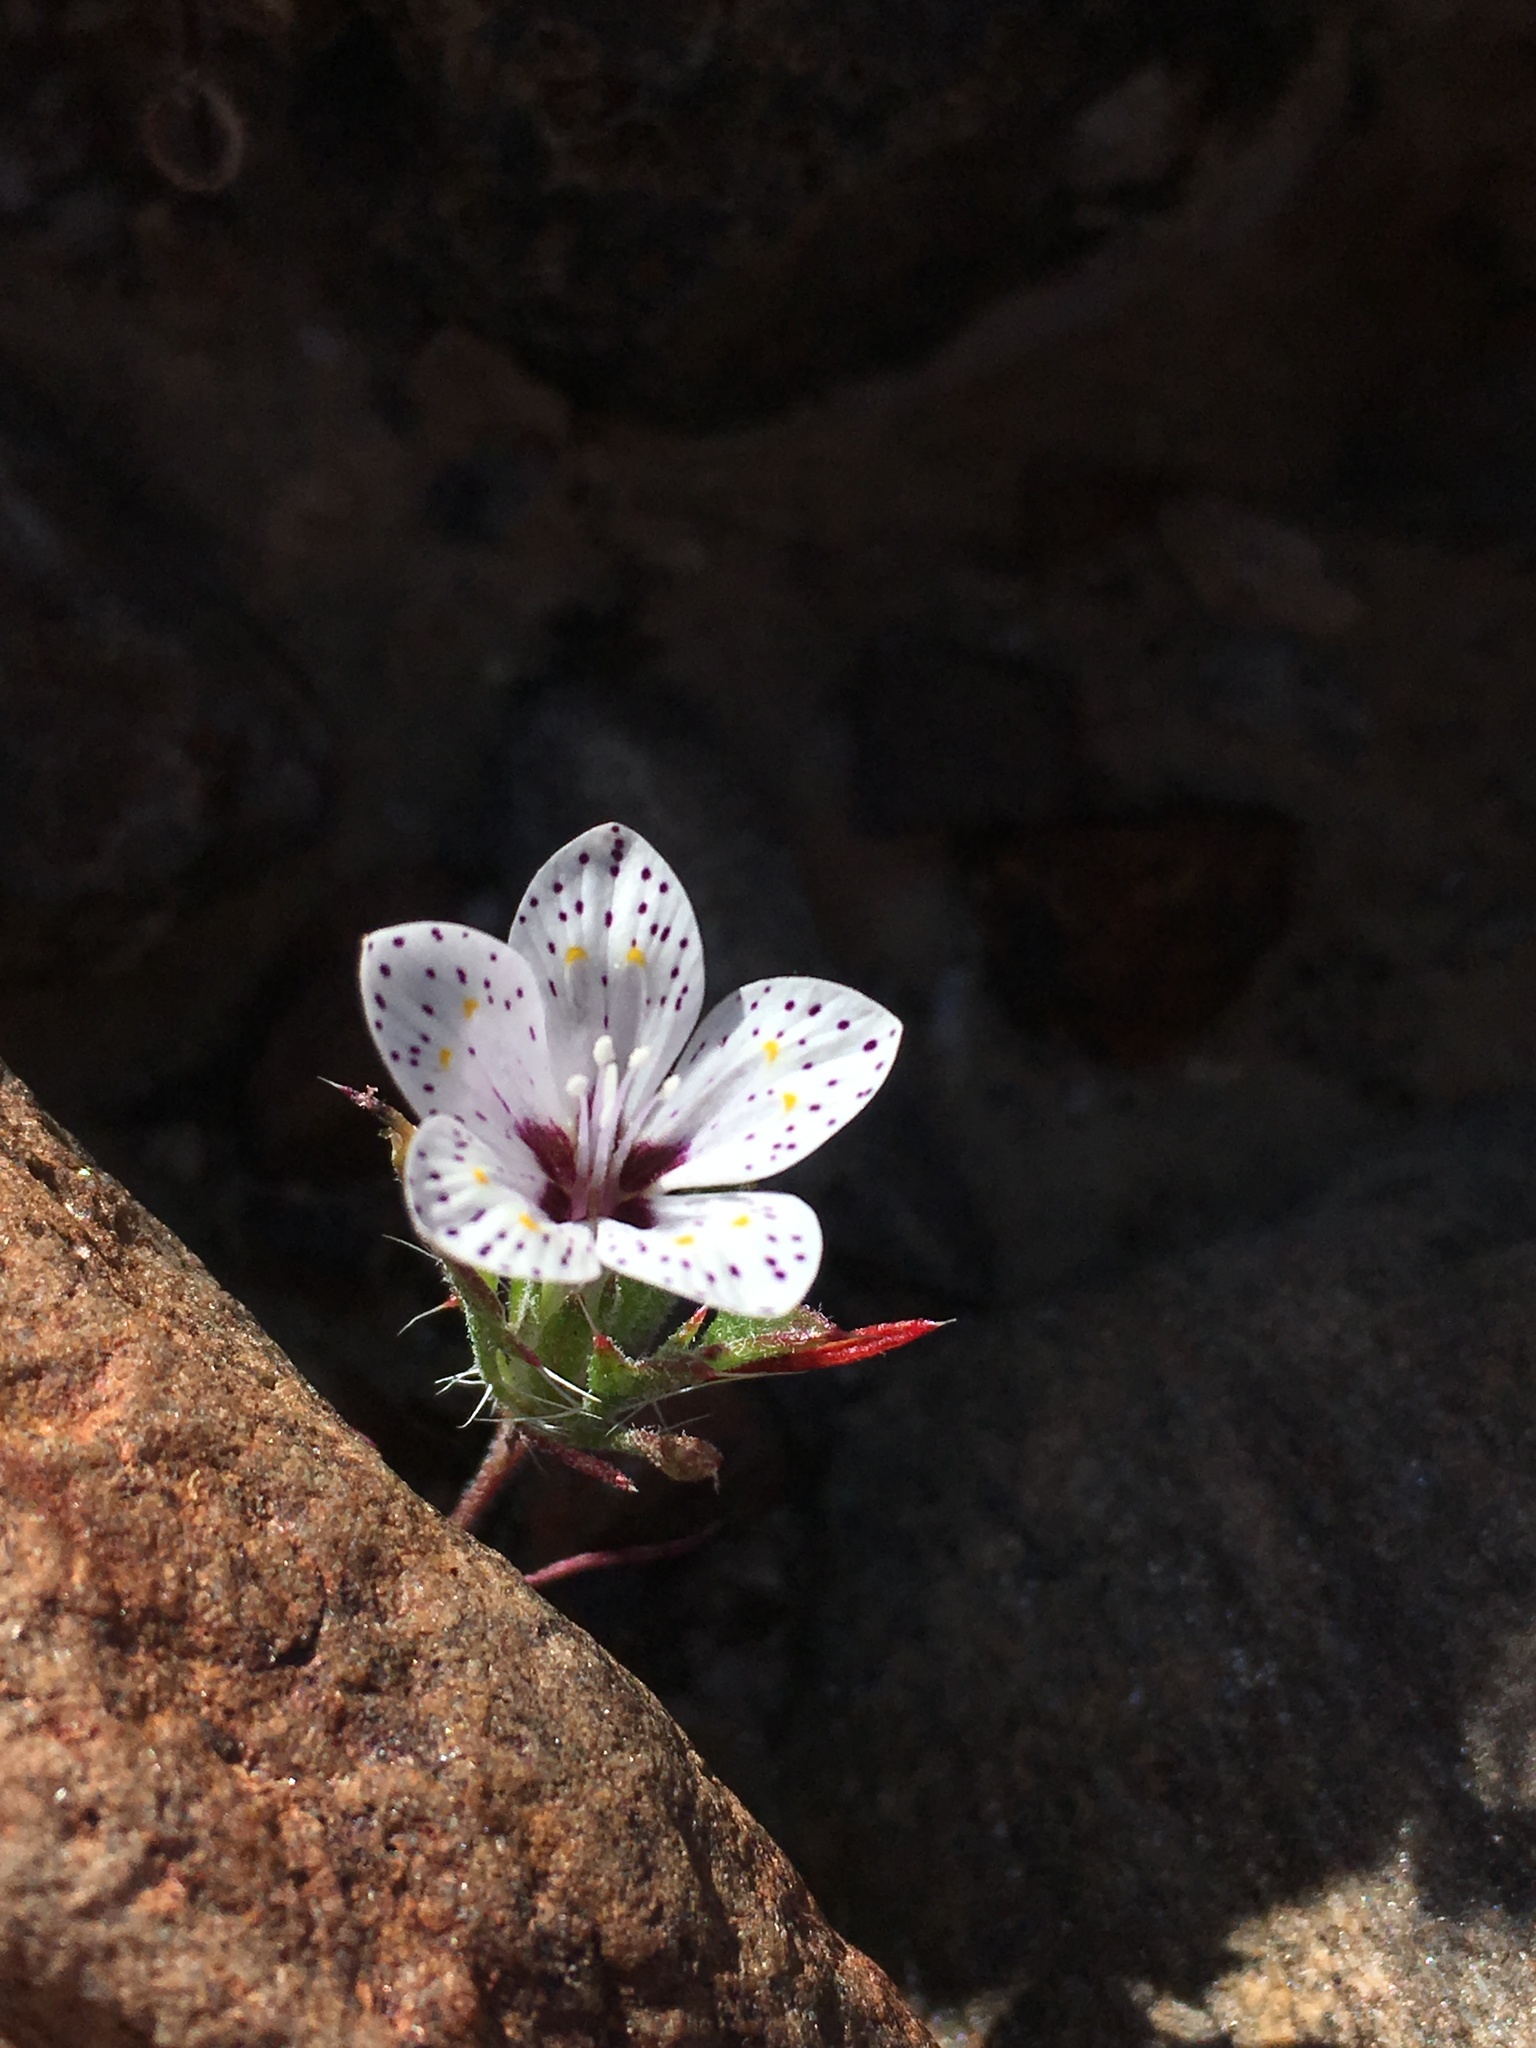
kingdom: Plantae
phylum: Tracheophyta
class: Magnoliopsida
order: Ericales
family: Polemoniaceae
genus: Langloisia
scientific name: Langloisia setosissima
